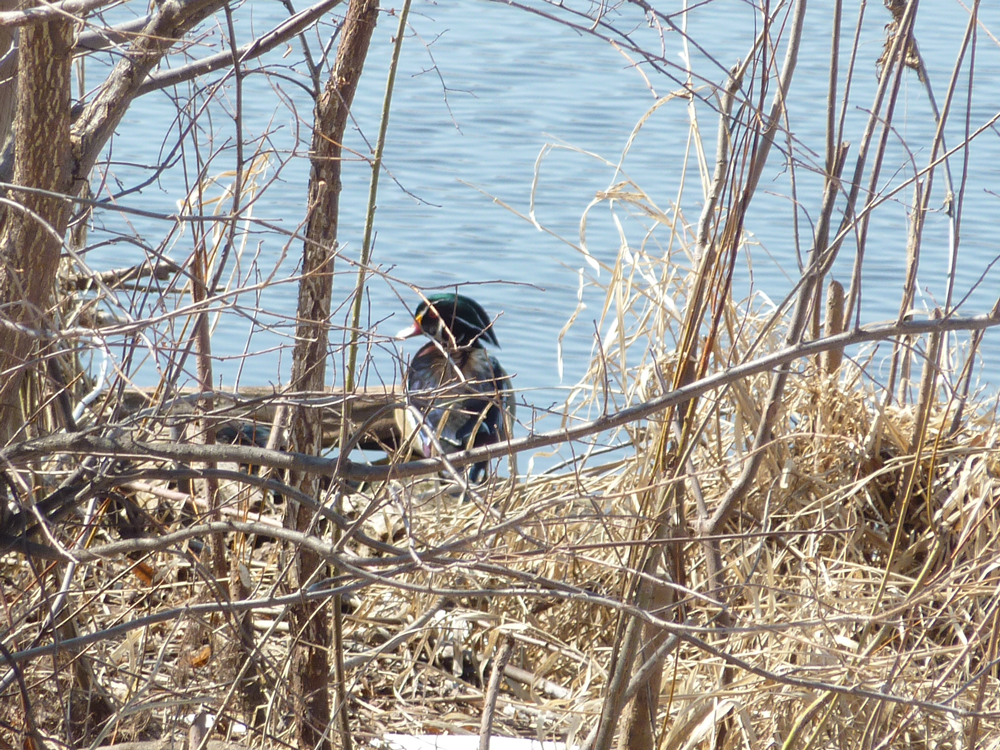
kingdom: Animalia
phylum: Chordata
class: Aves
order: Anseriformes
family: Anatidae
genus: Aix
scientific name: Aix sponsa
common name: Wood duck
